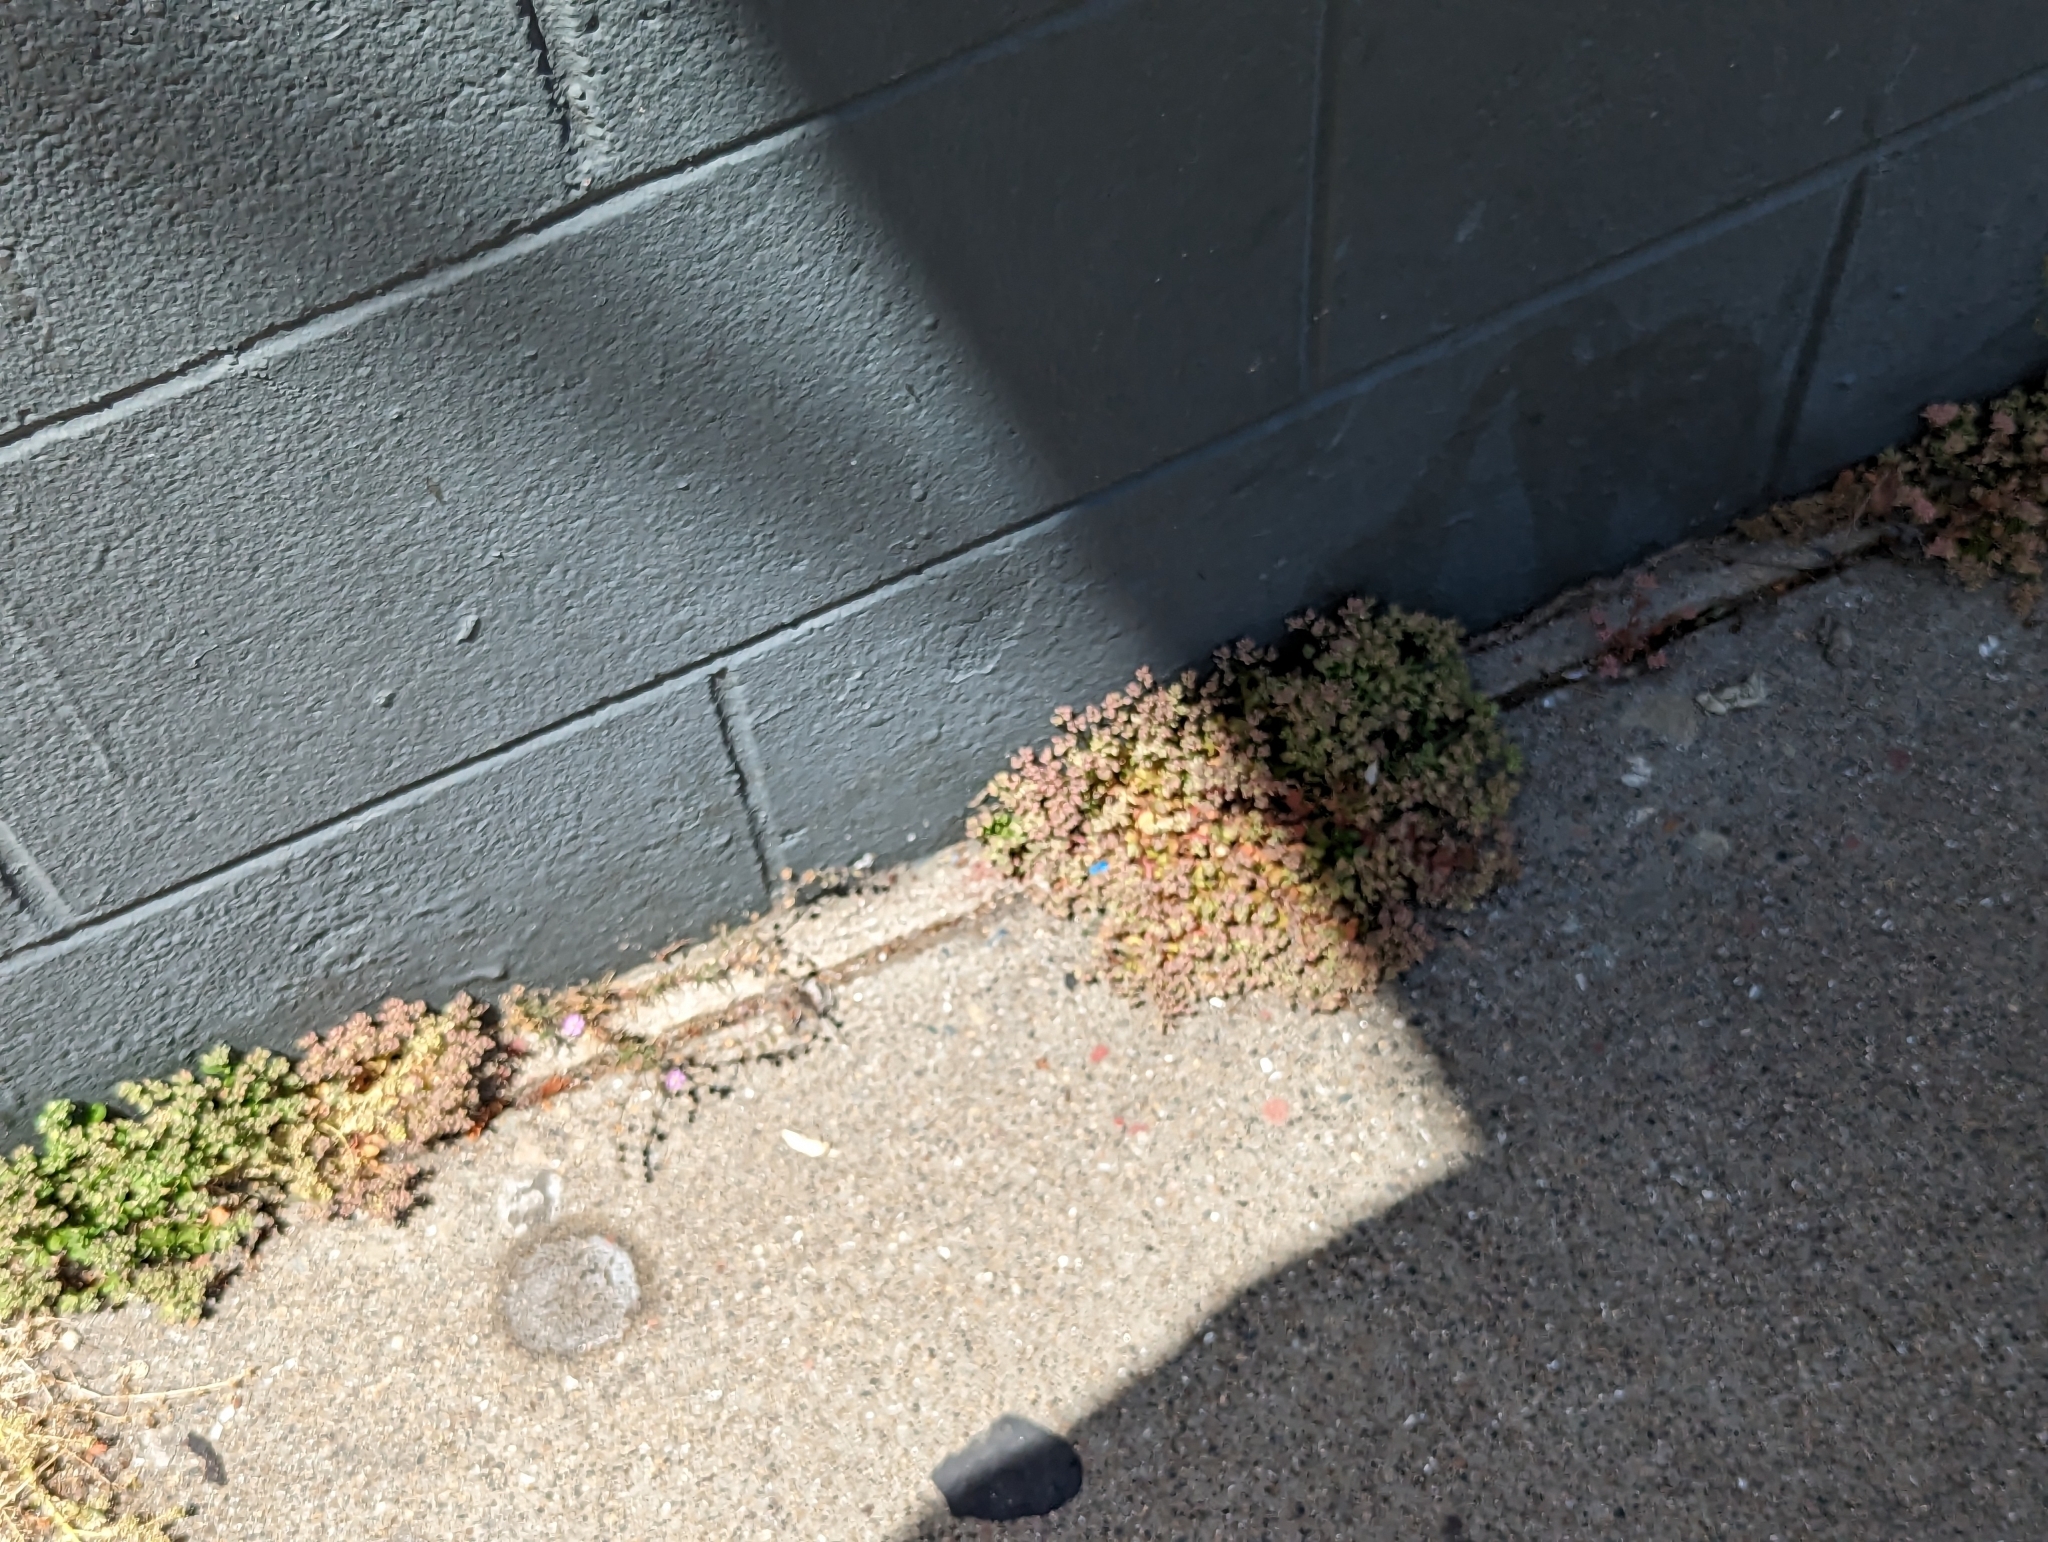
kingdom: Plantae
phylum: Tracheophyta
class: Magnoliopsida
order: Caryophyllales
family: Caryophyllaceae
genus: Polycarpon
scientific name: Polycarpon tetraphyllum
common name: Four-leaved all-seed
